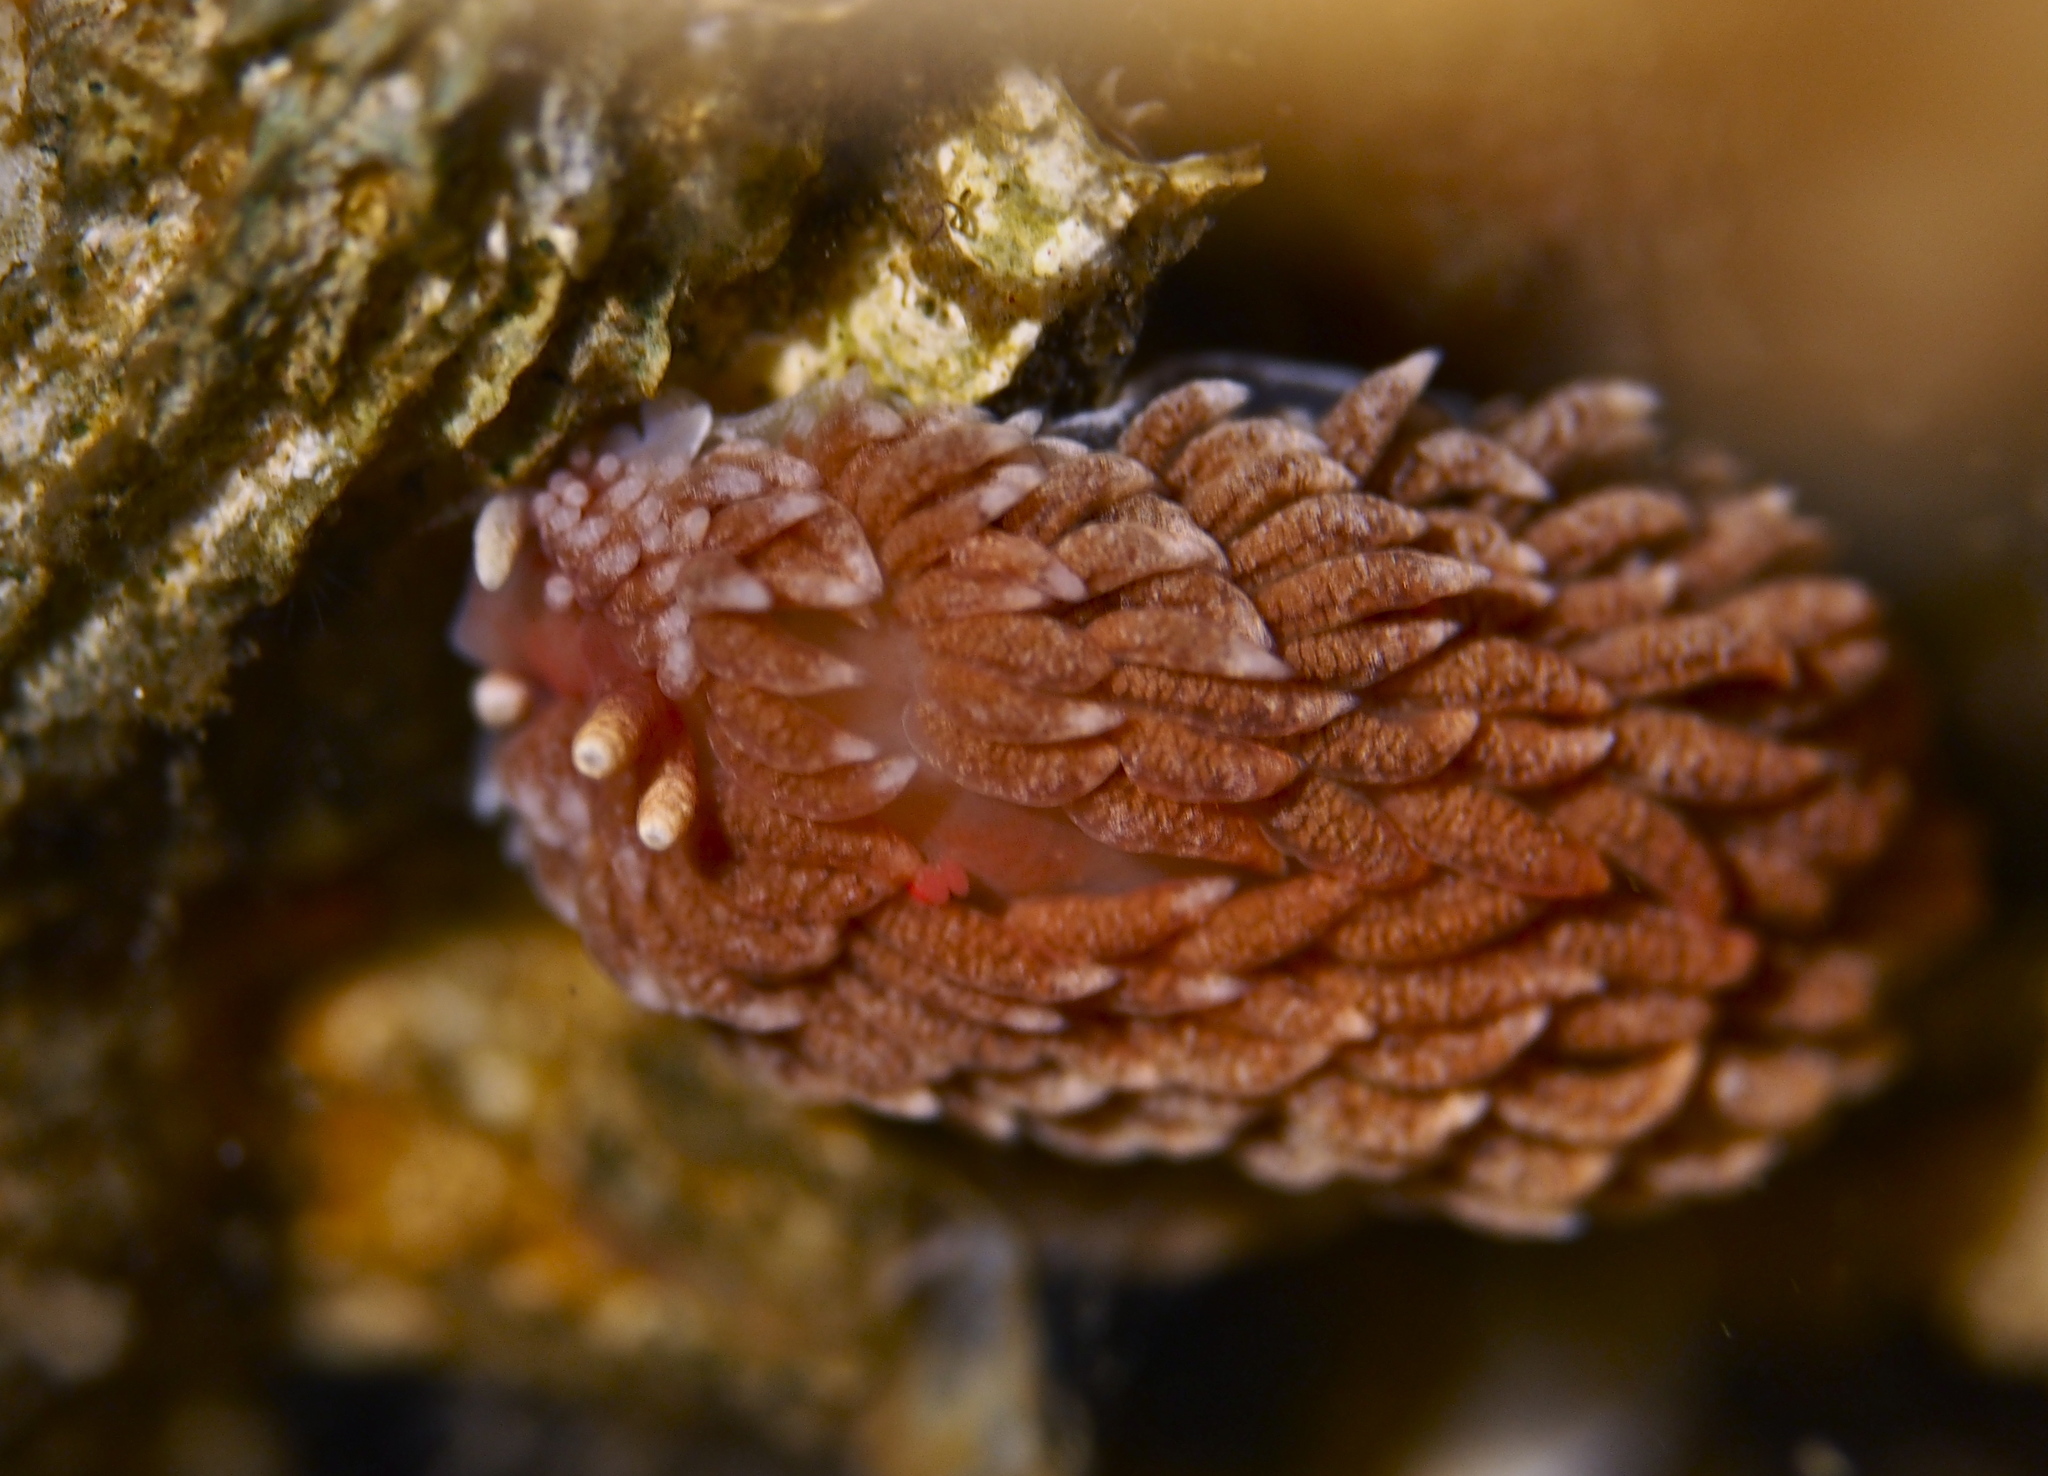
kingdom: Animalia
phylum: Mollusca
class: Gastropoda
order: Nudibranchia
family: Aeolidiidae
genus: Aeolidiella
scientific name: Aeolidiella glauca
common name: Orange-brown aeolid
